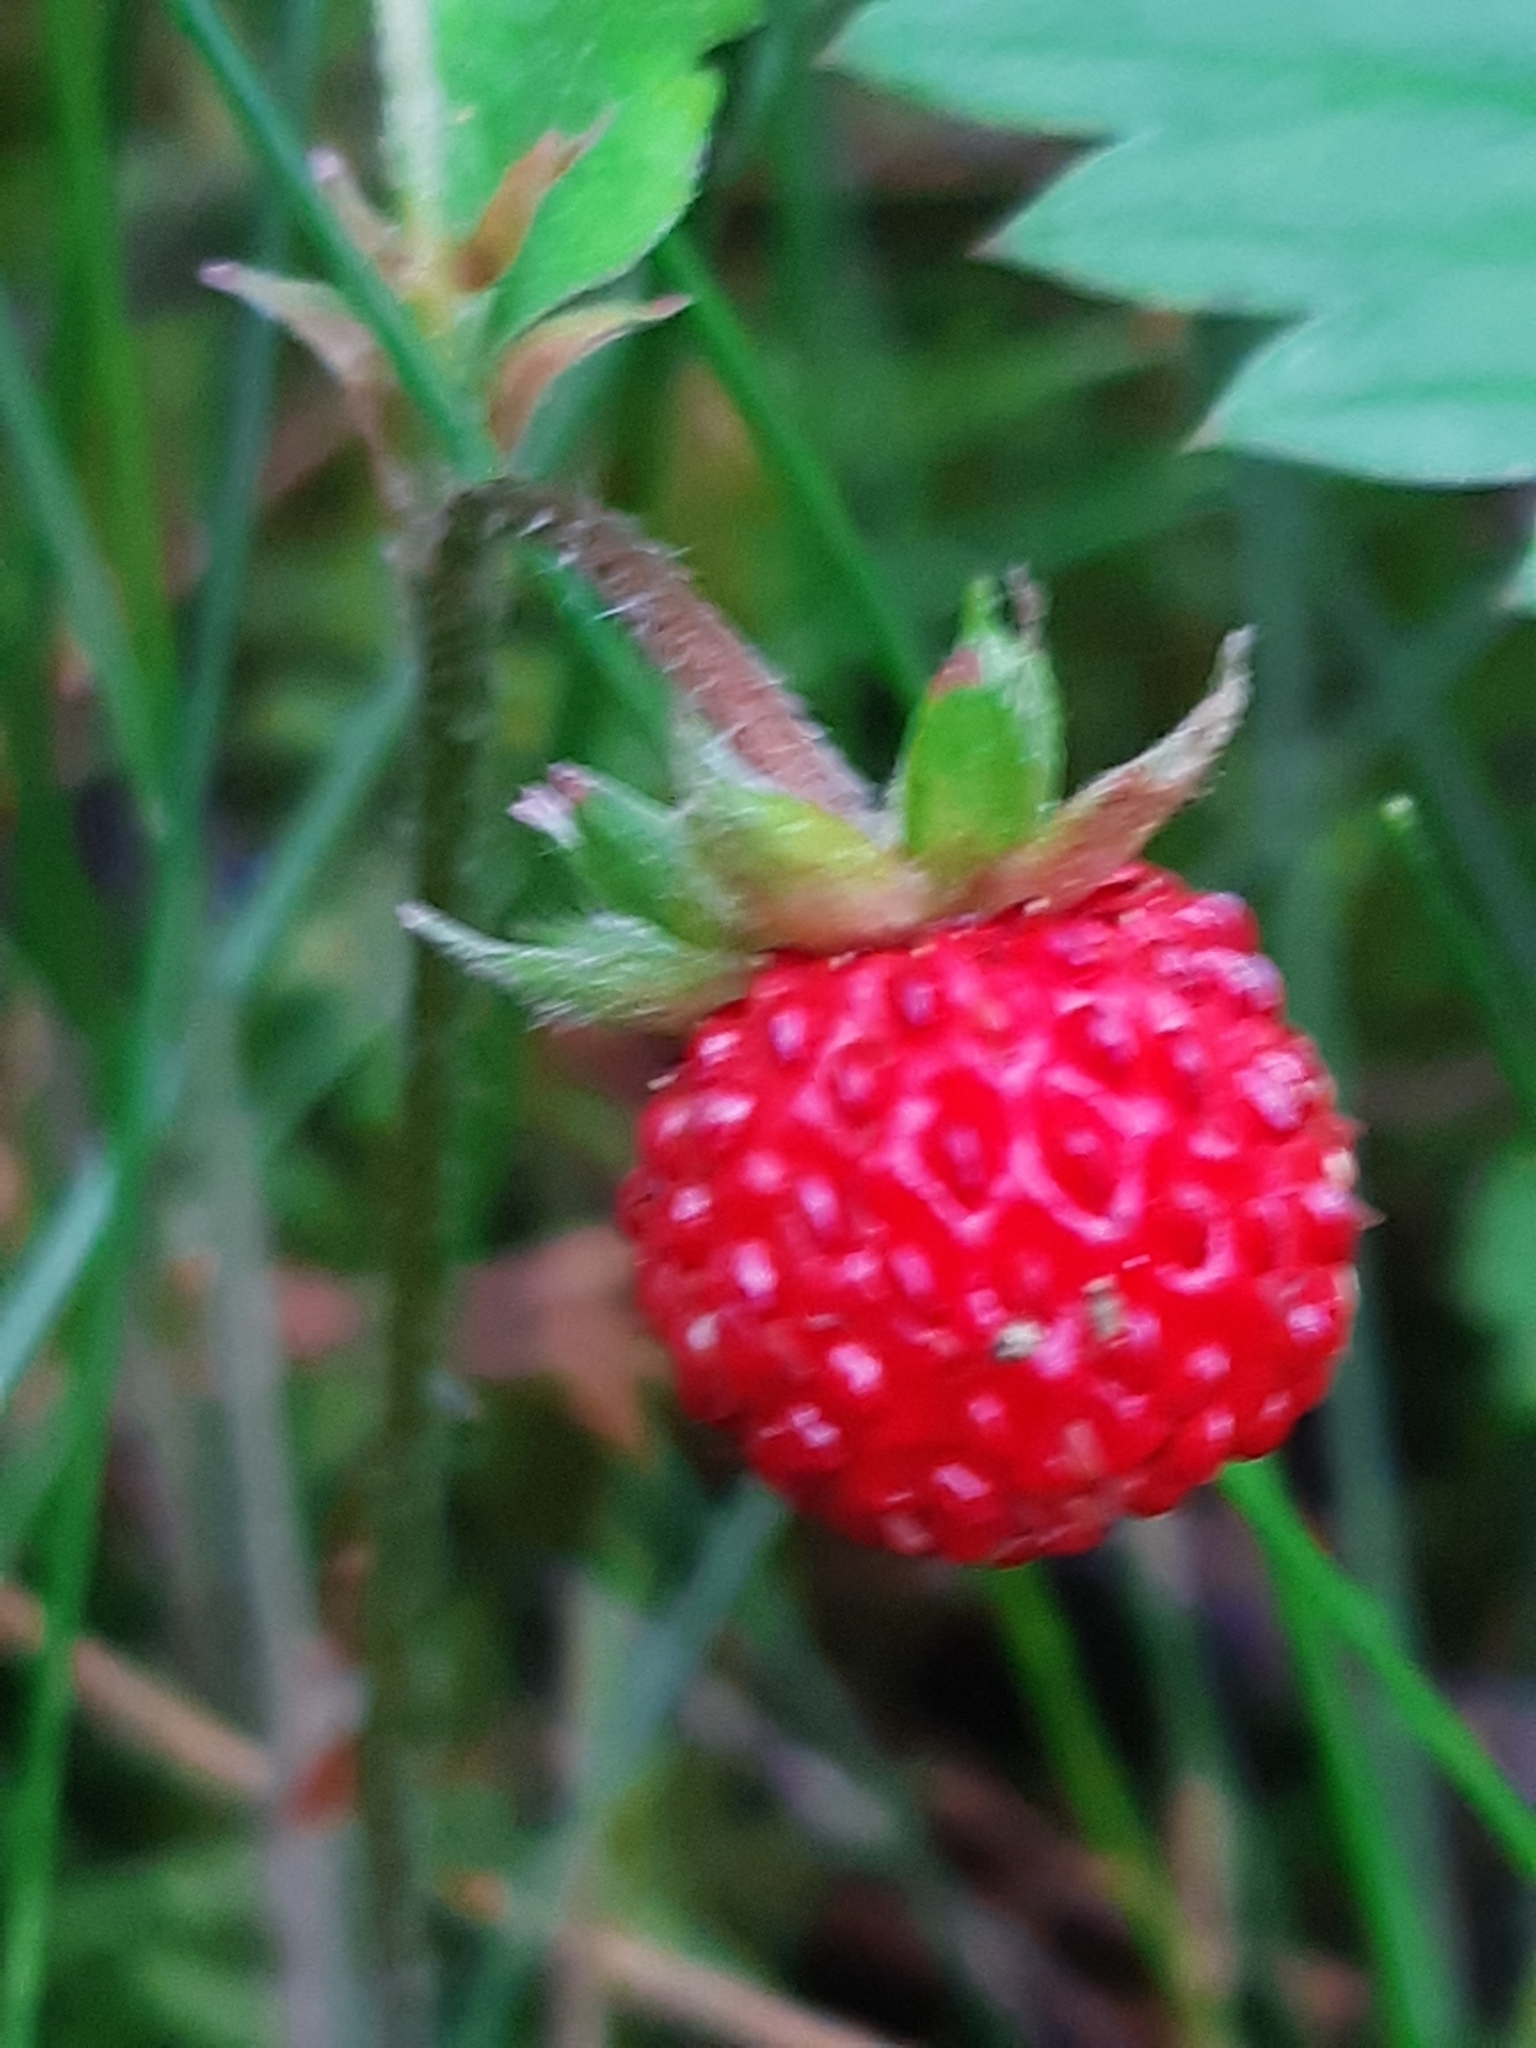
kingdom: Plantae
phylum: Tracheophyta
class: Magnoliopsida
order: Rosales
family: Rosaceae
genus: Fragaria
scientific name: Fragaria vesca
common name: Wild strawberry
